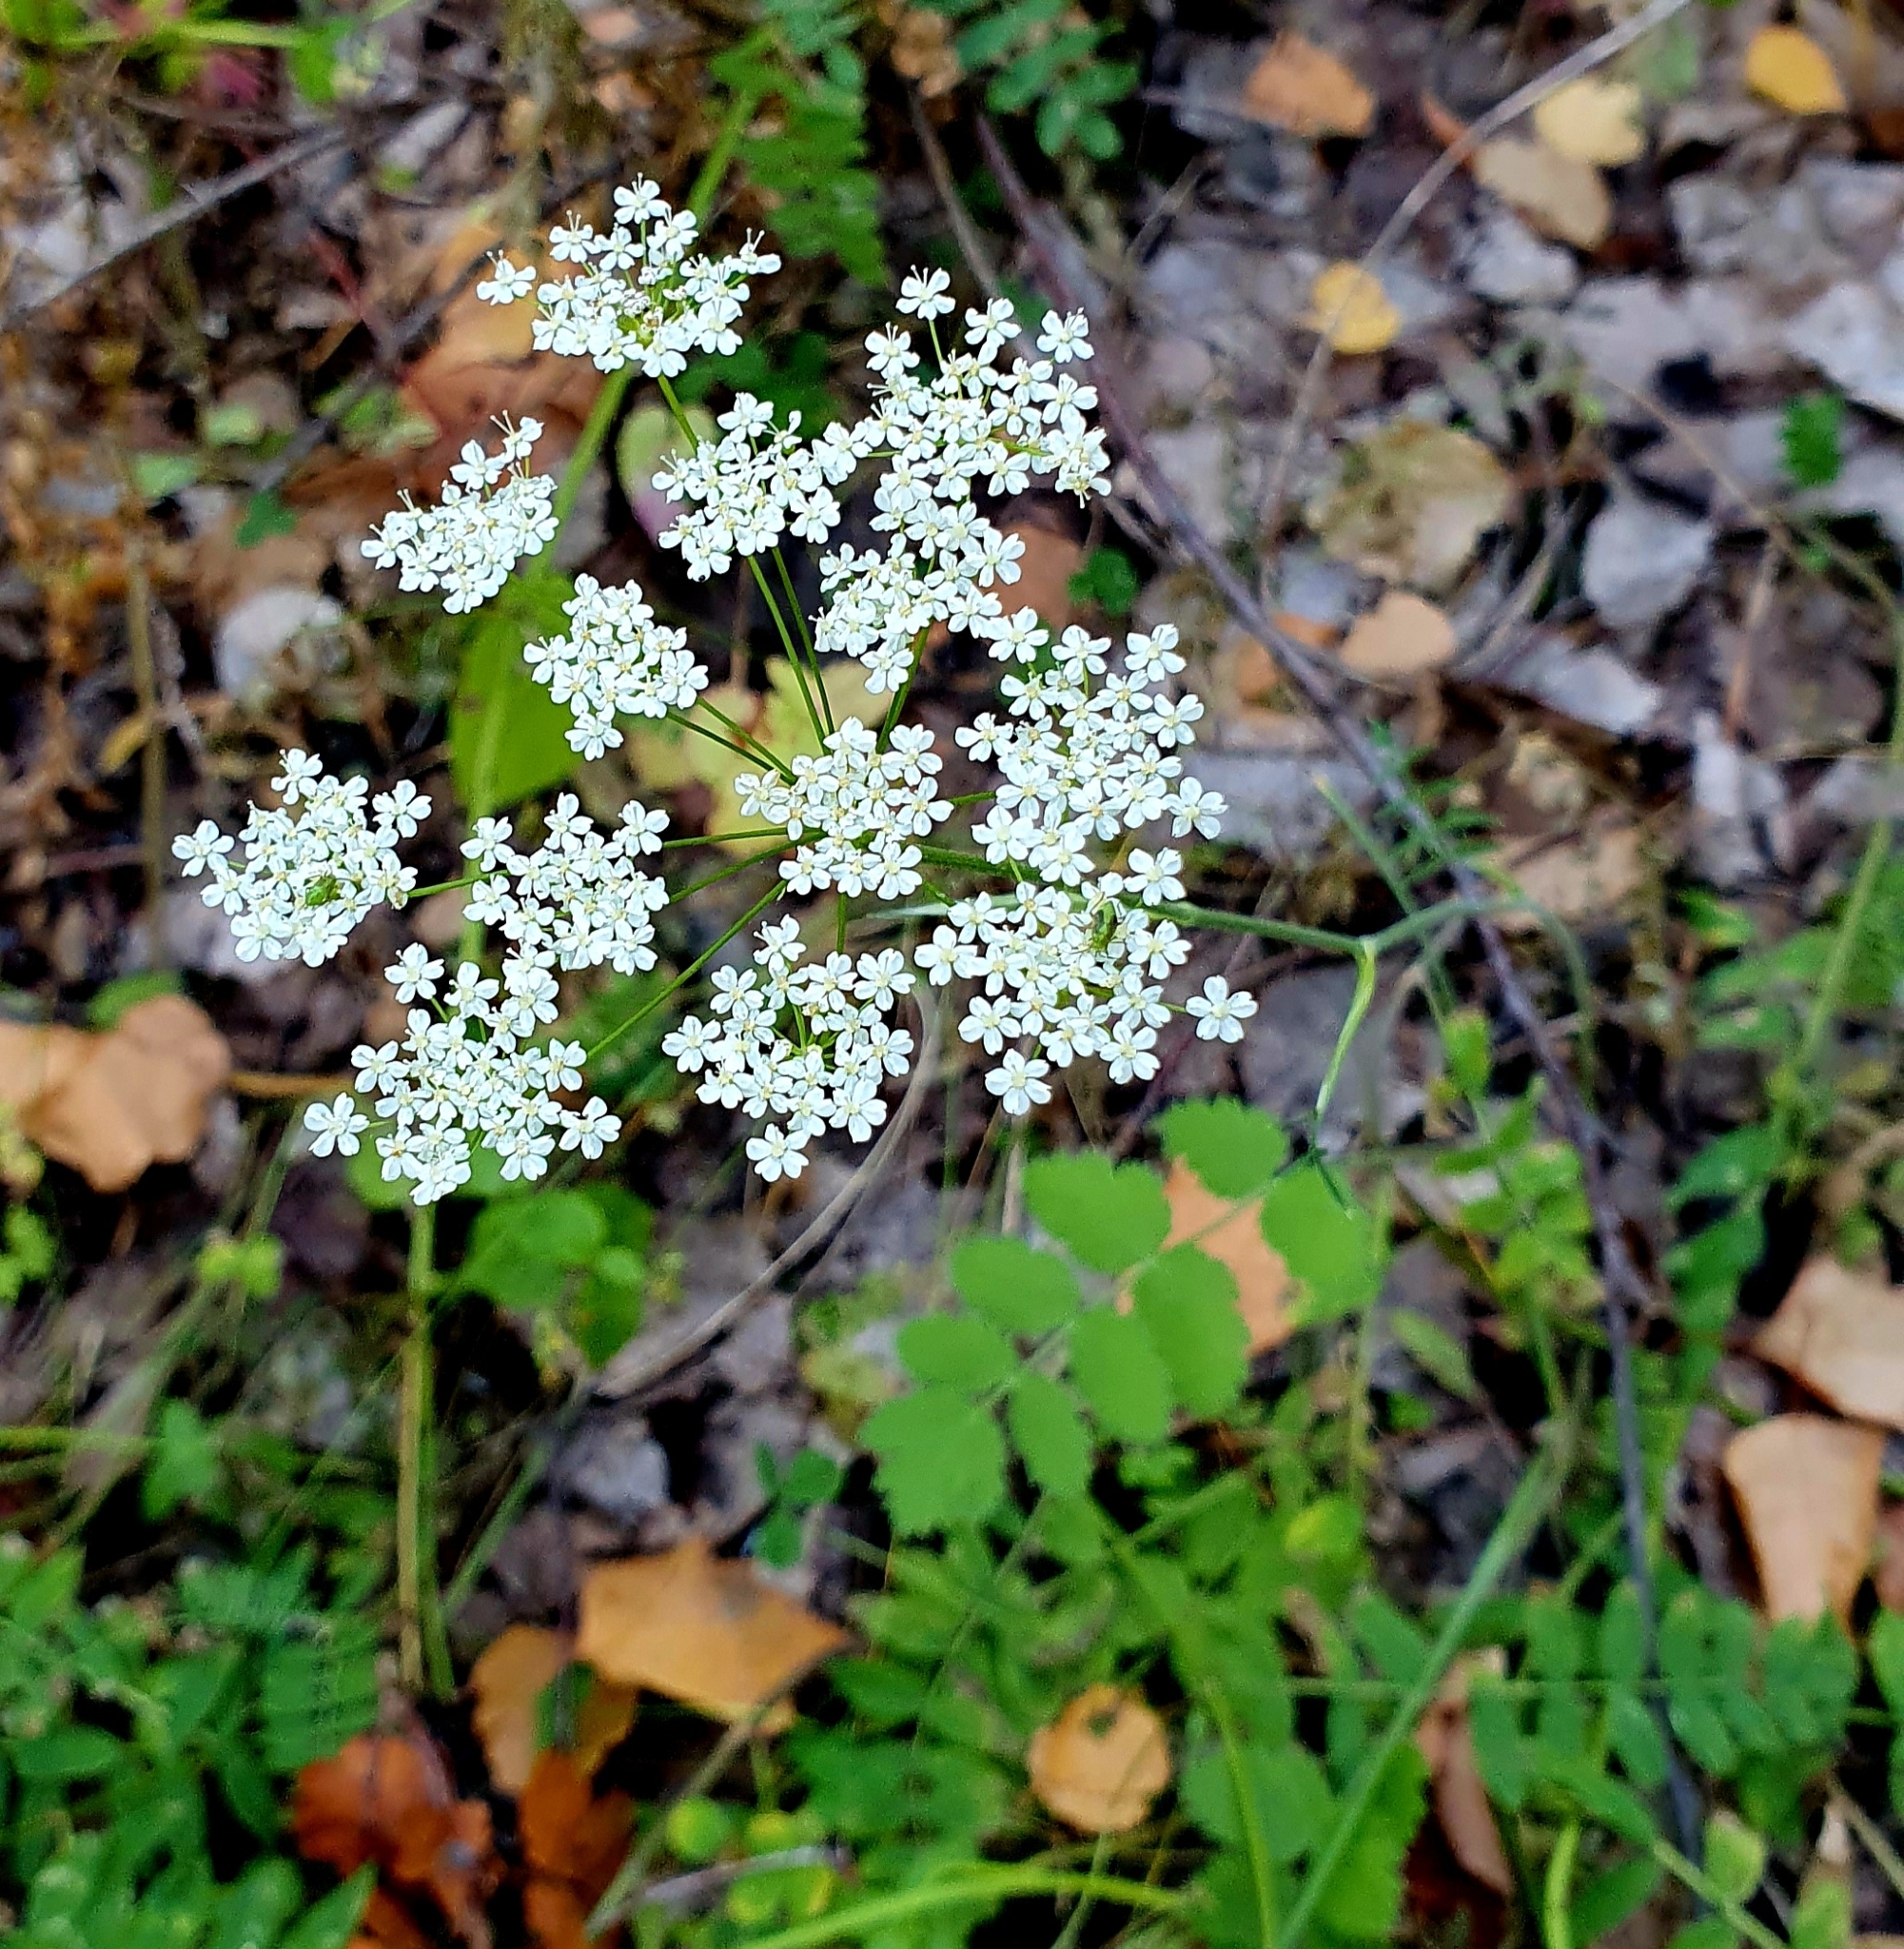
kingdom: Plantae
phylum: Tracheophyta
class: Magnoliopsida
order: Apiales
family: Apiaceae
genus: Pimpinella
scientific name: Pimpinella saxifraga
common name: Burnet-saxifrage
